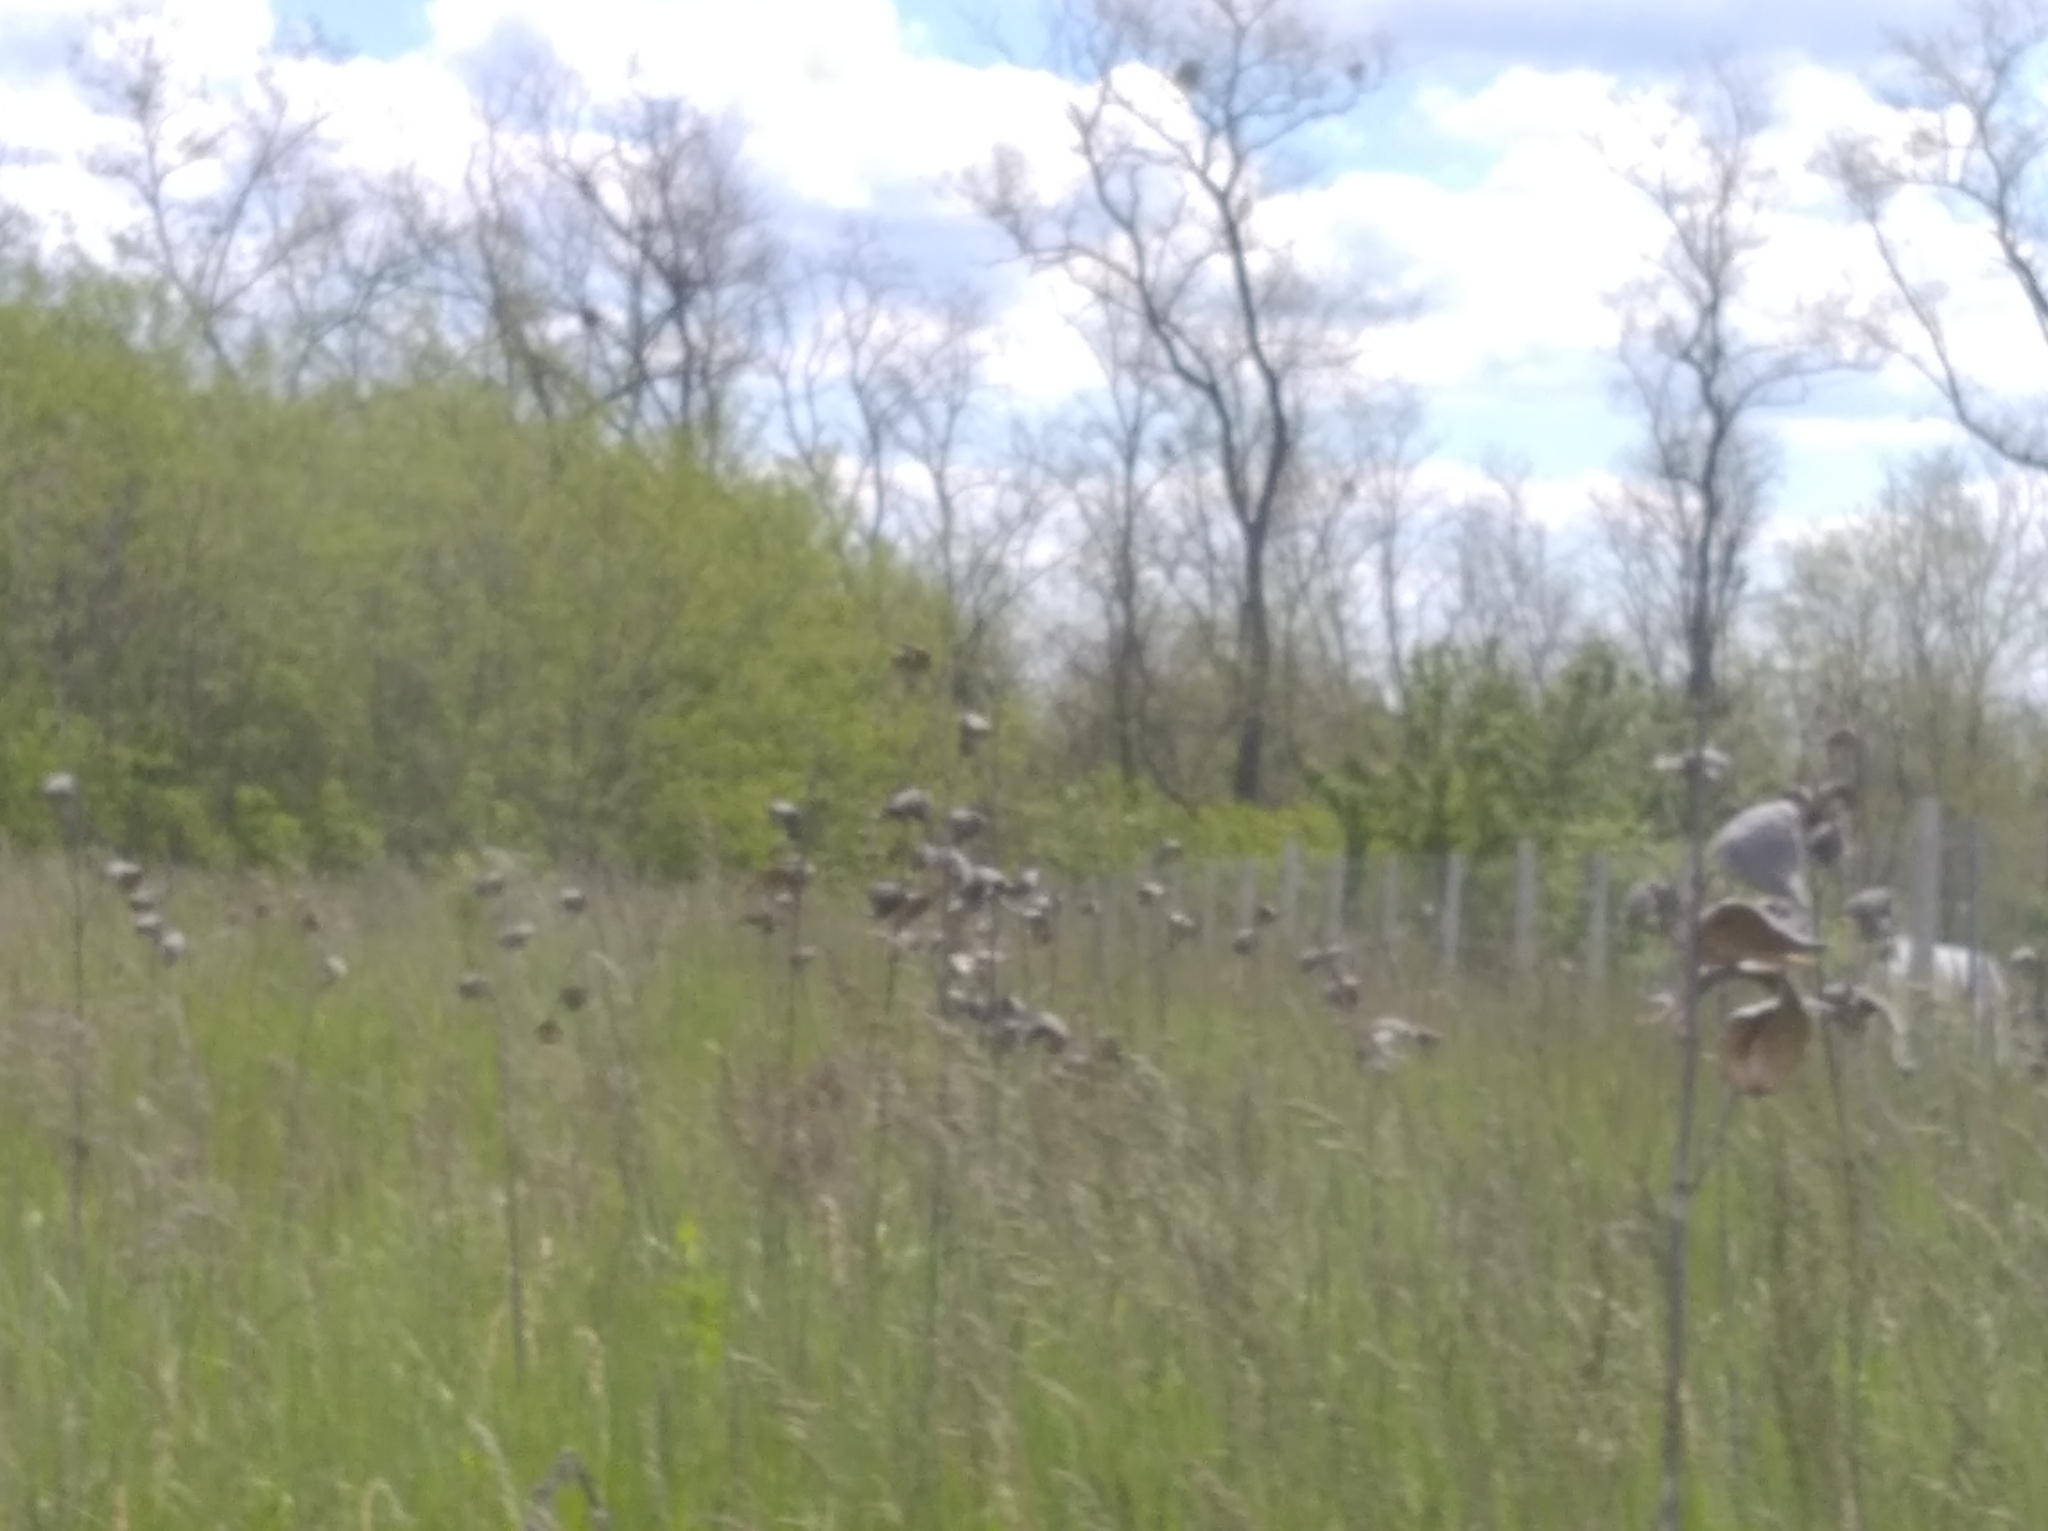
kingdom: Plantae
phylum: Tracheophyta
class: Magnoliopsida
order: Gentianales
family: Apocynaceae
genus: Asclepias
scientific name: Asclepias syriaca
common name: Common milkweed
